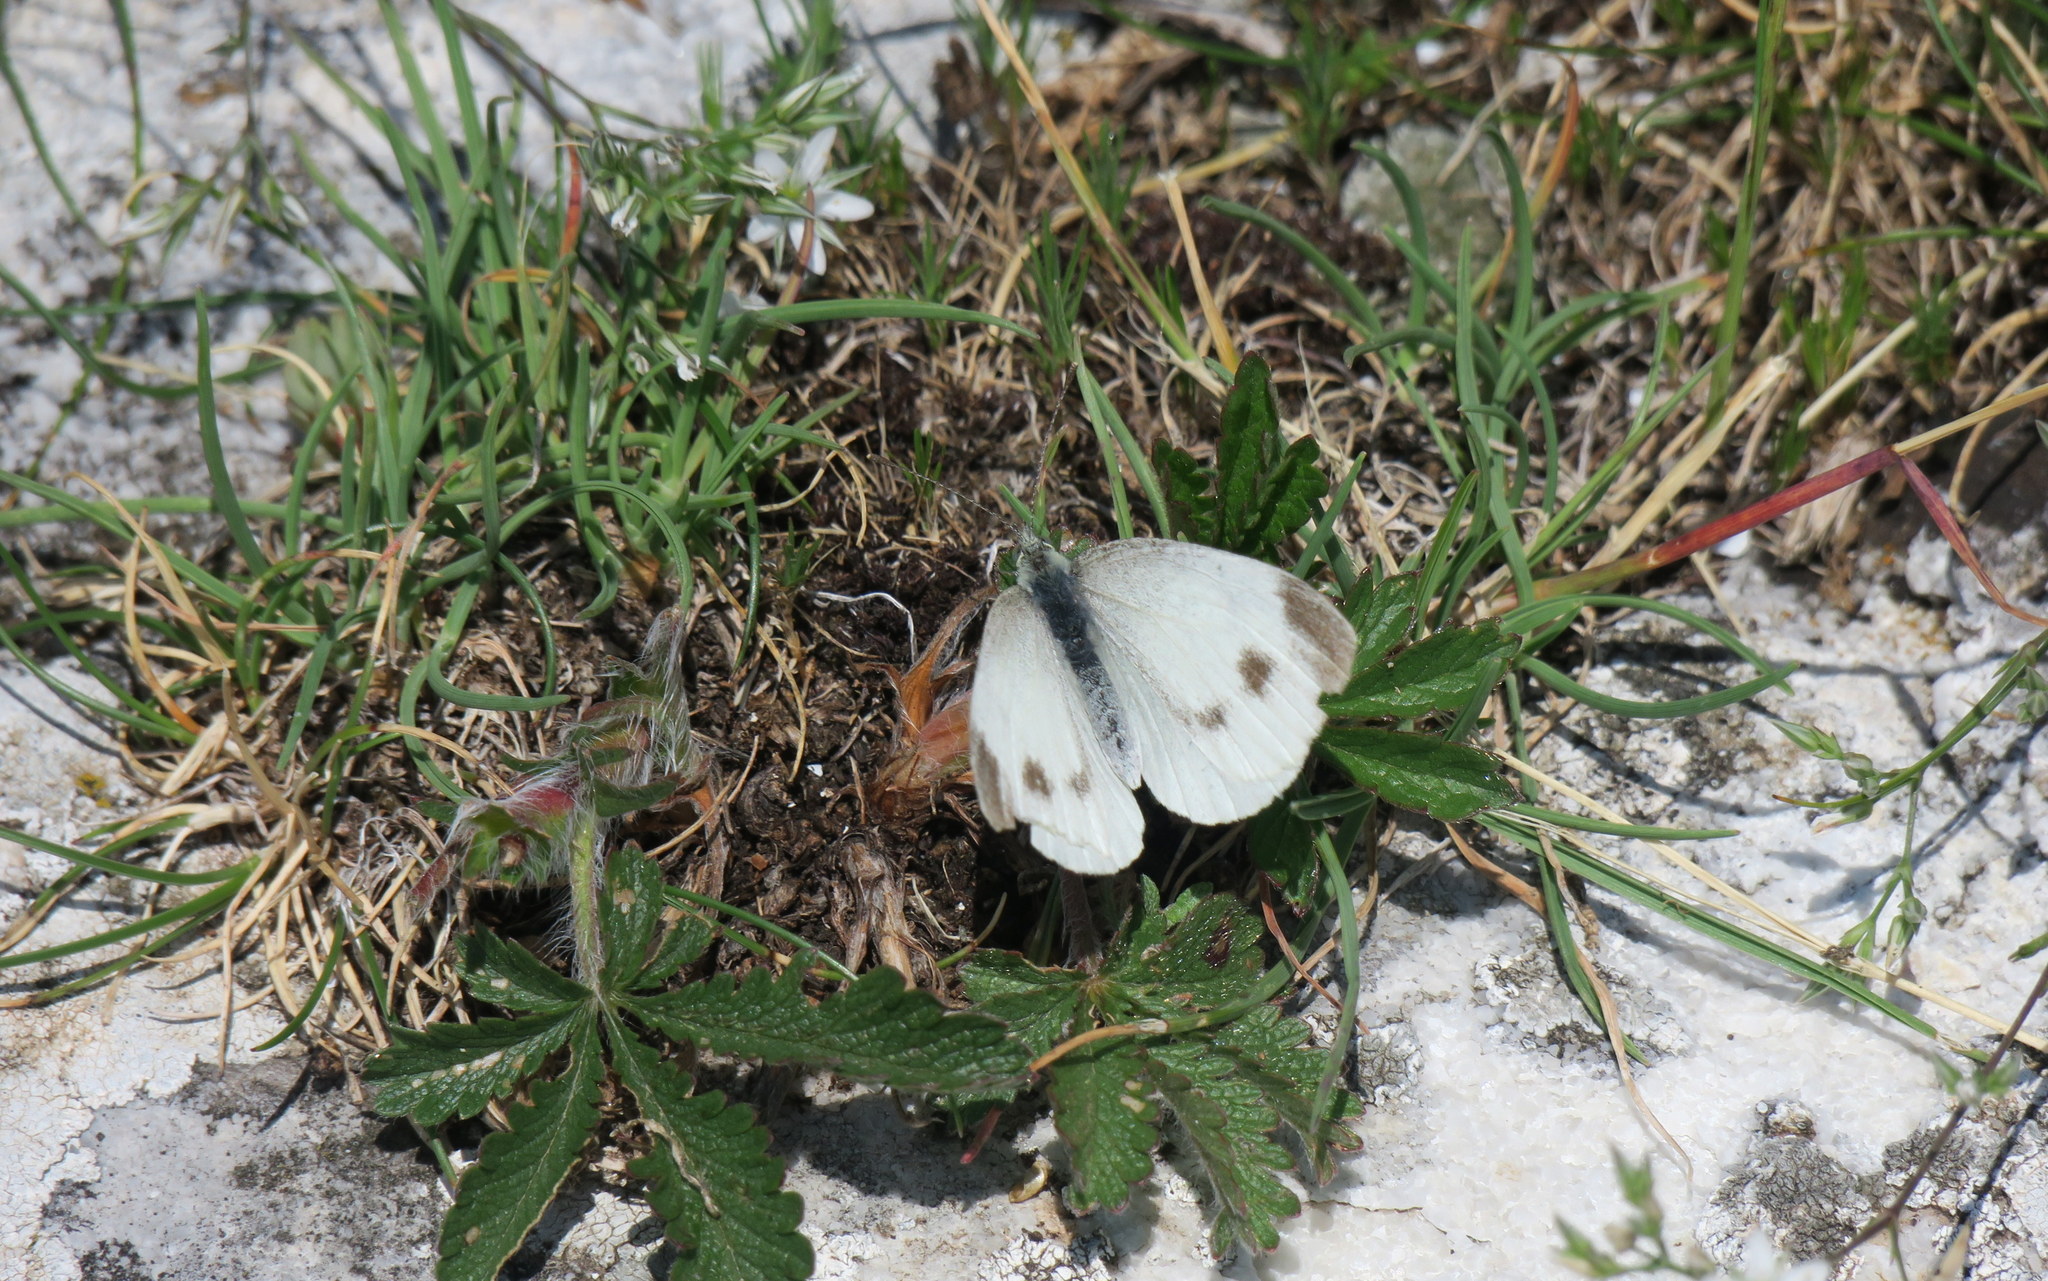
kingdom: Animalia
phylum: Arthropoda
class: Insecta
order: Lepidoptera
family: Pieridae
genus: Pieris
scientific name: Pieris mannii
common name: Southern small white
